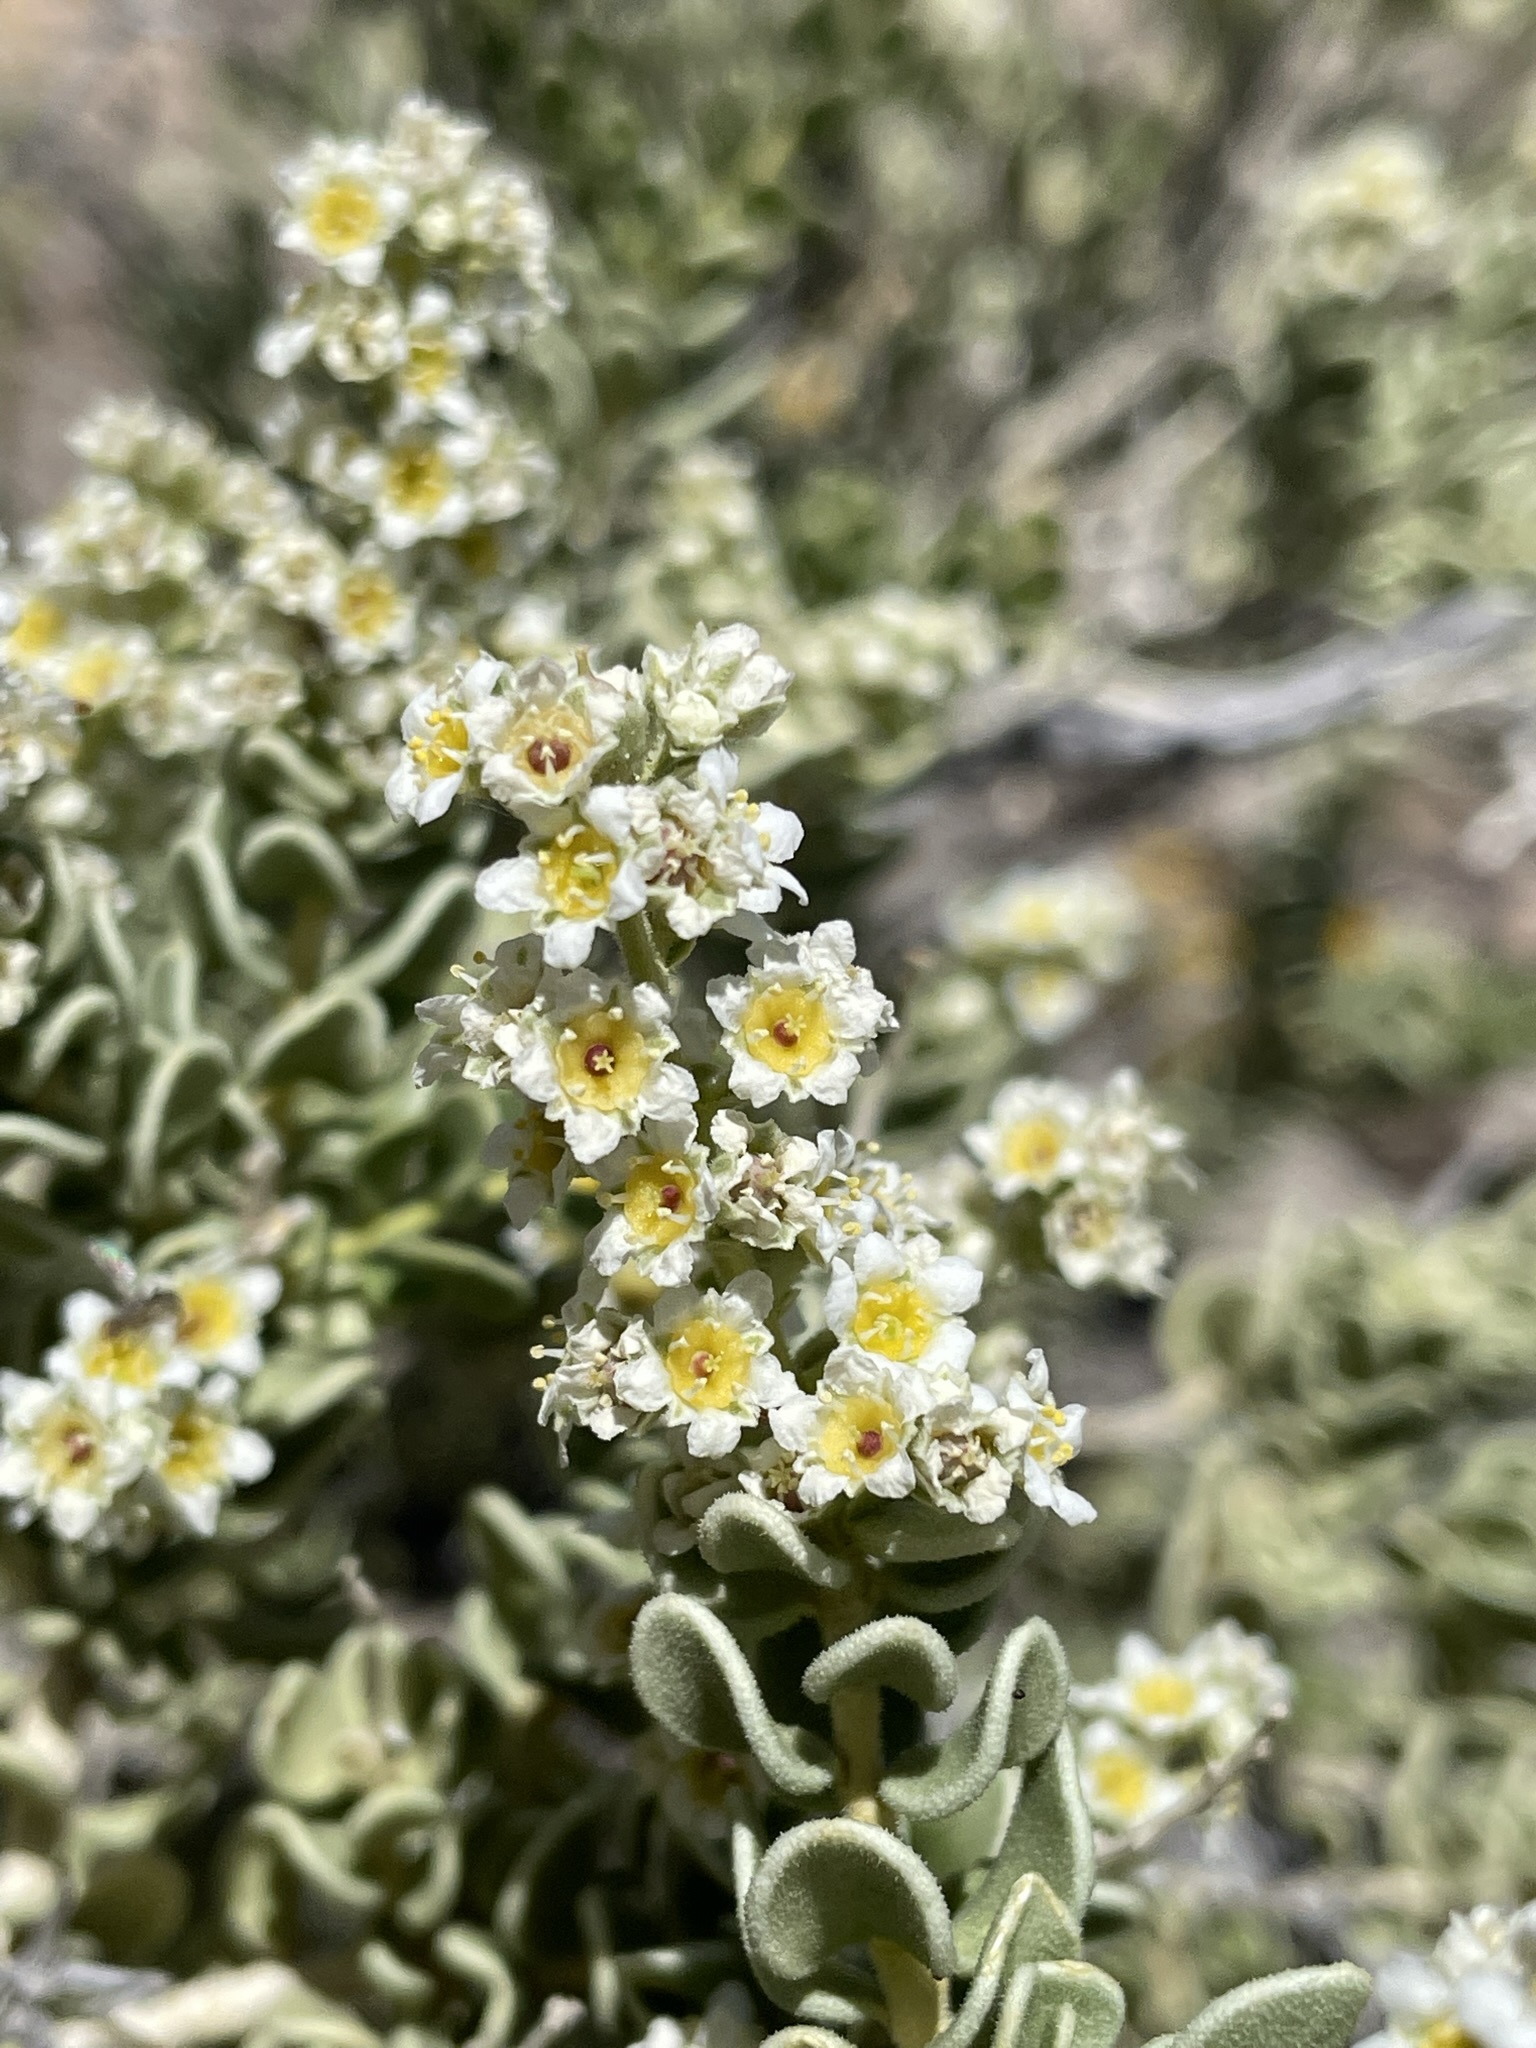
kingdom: Plantae
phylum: Tracheophyta
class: Magnoliopsida
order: Celastrales
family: Celastraceae
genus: Mortonia
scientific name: Mortonia utahensis
